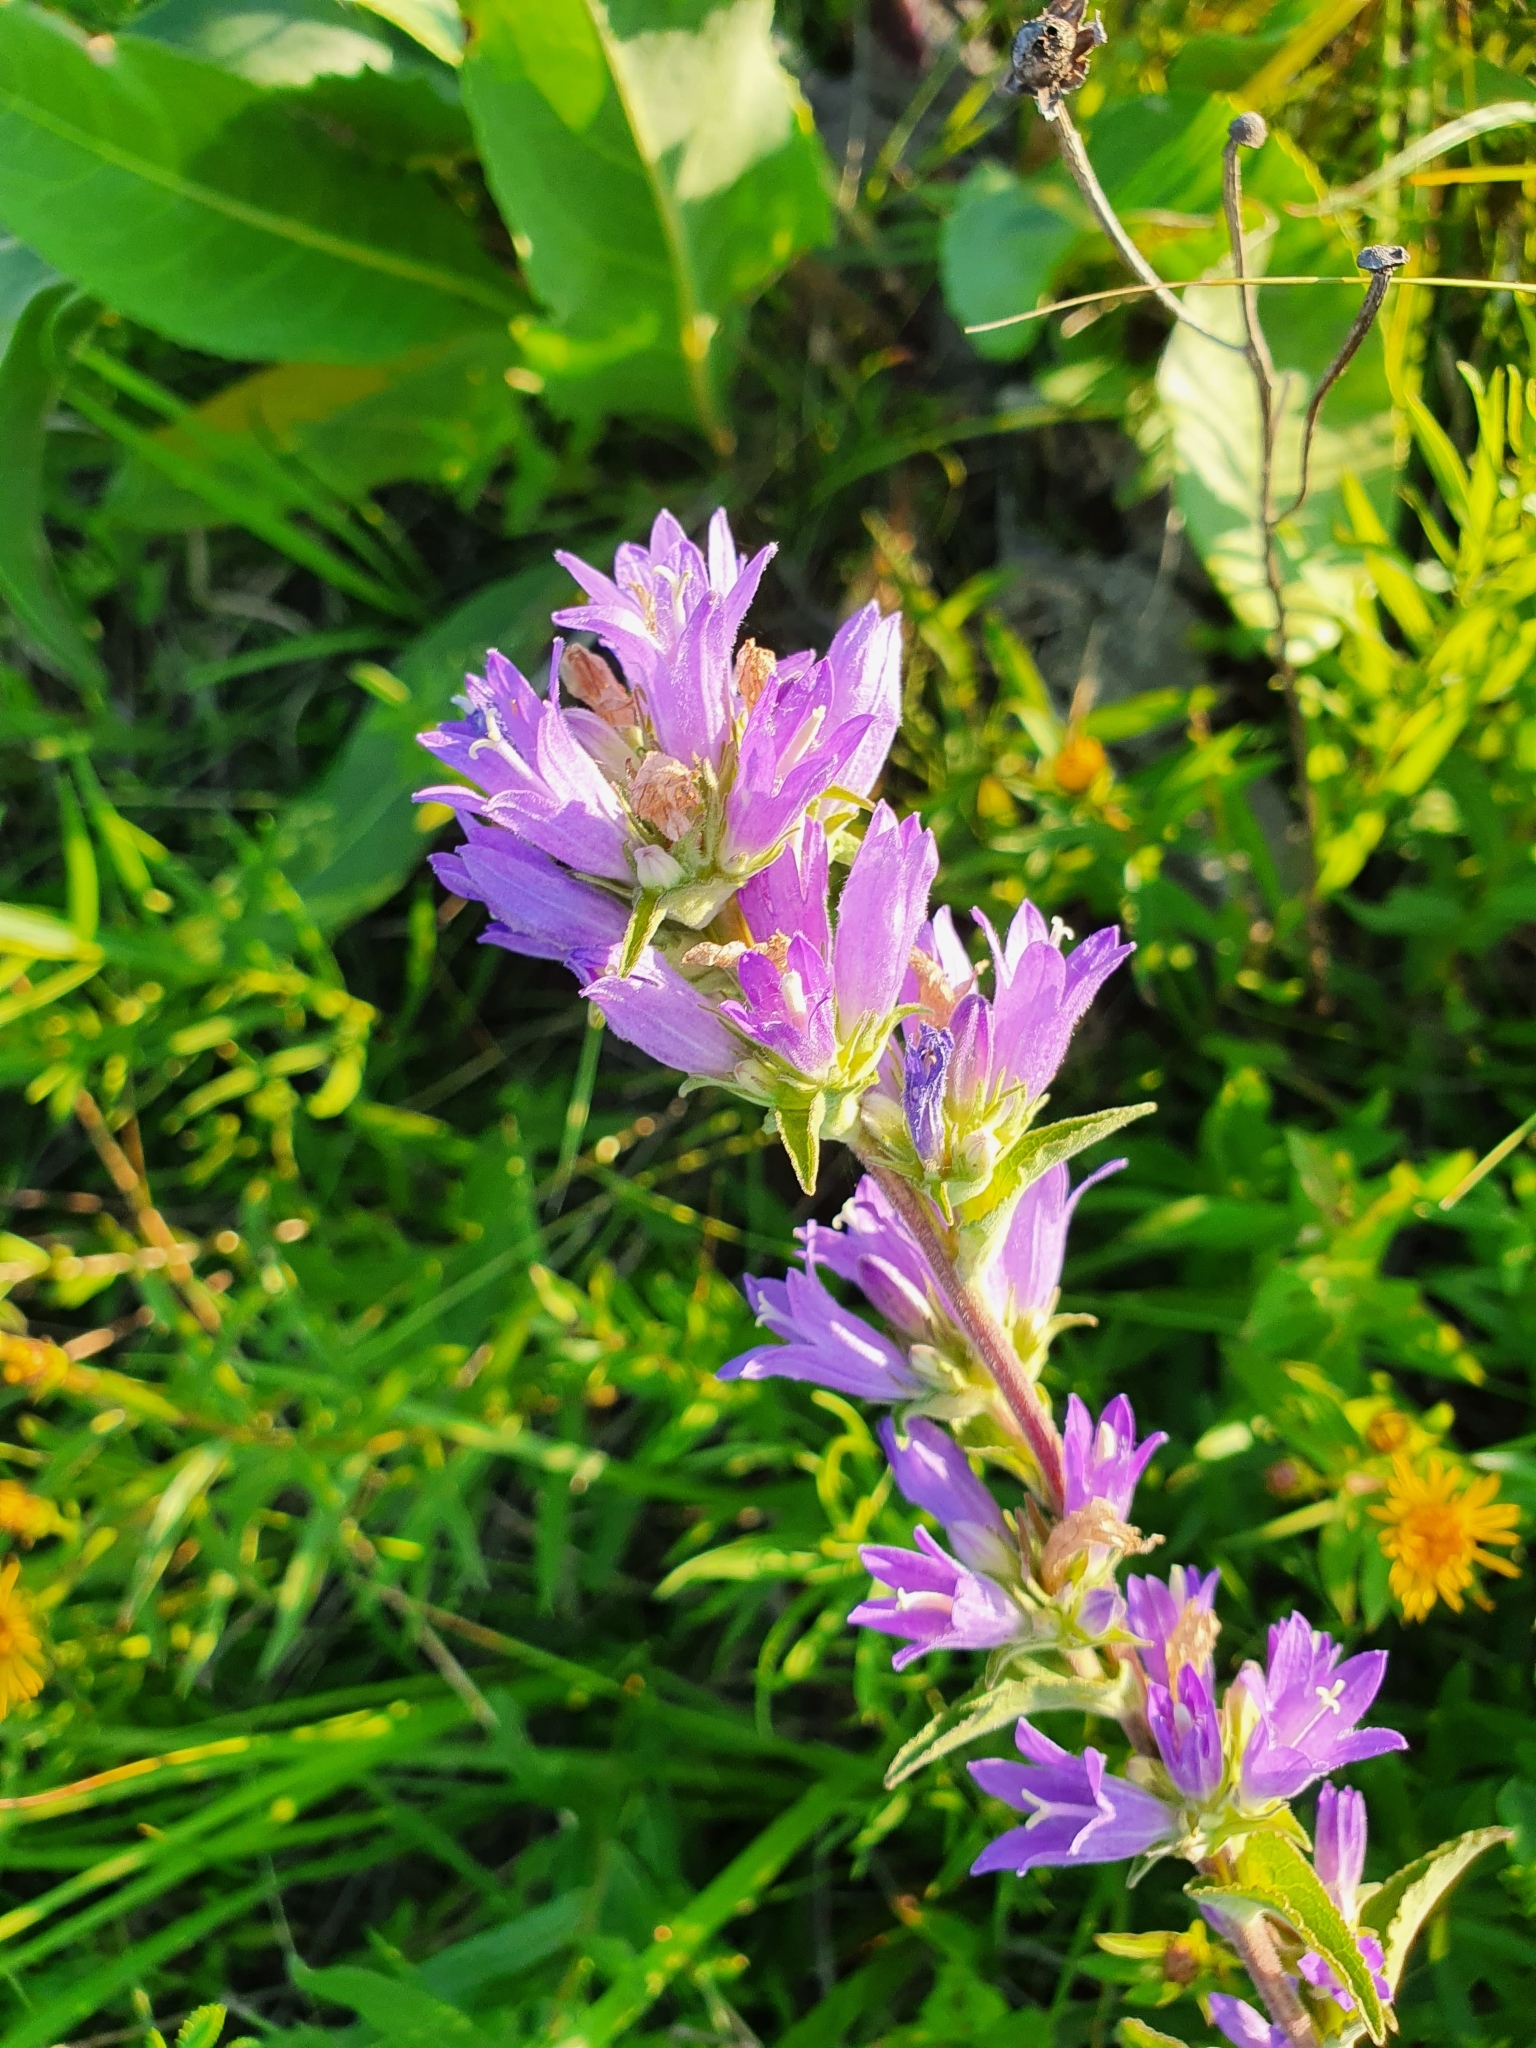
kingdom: Plantae
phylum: Tracheophyta
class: Magnoliopsida
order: Asterales
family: Campanulaceae
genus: Campanula
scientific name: Campanula glomerata
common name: Clustered bellflower
